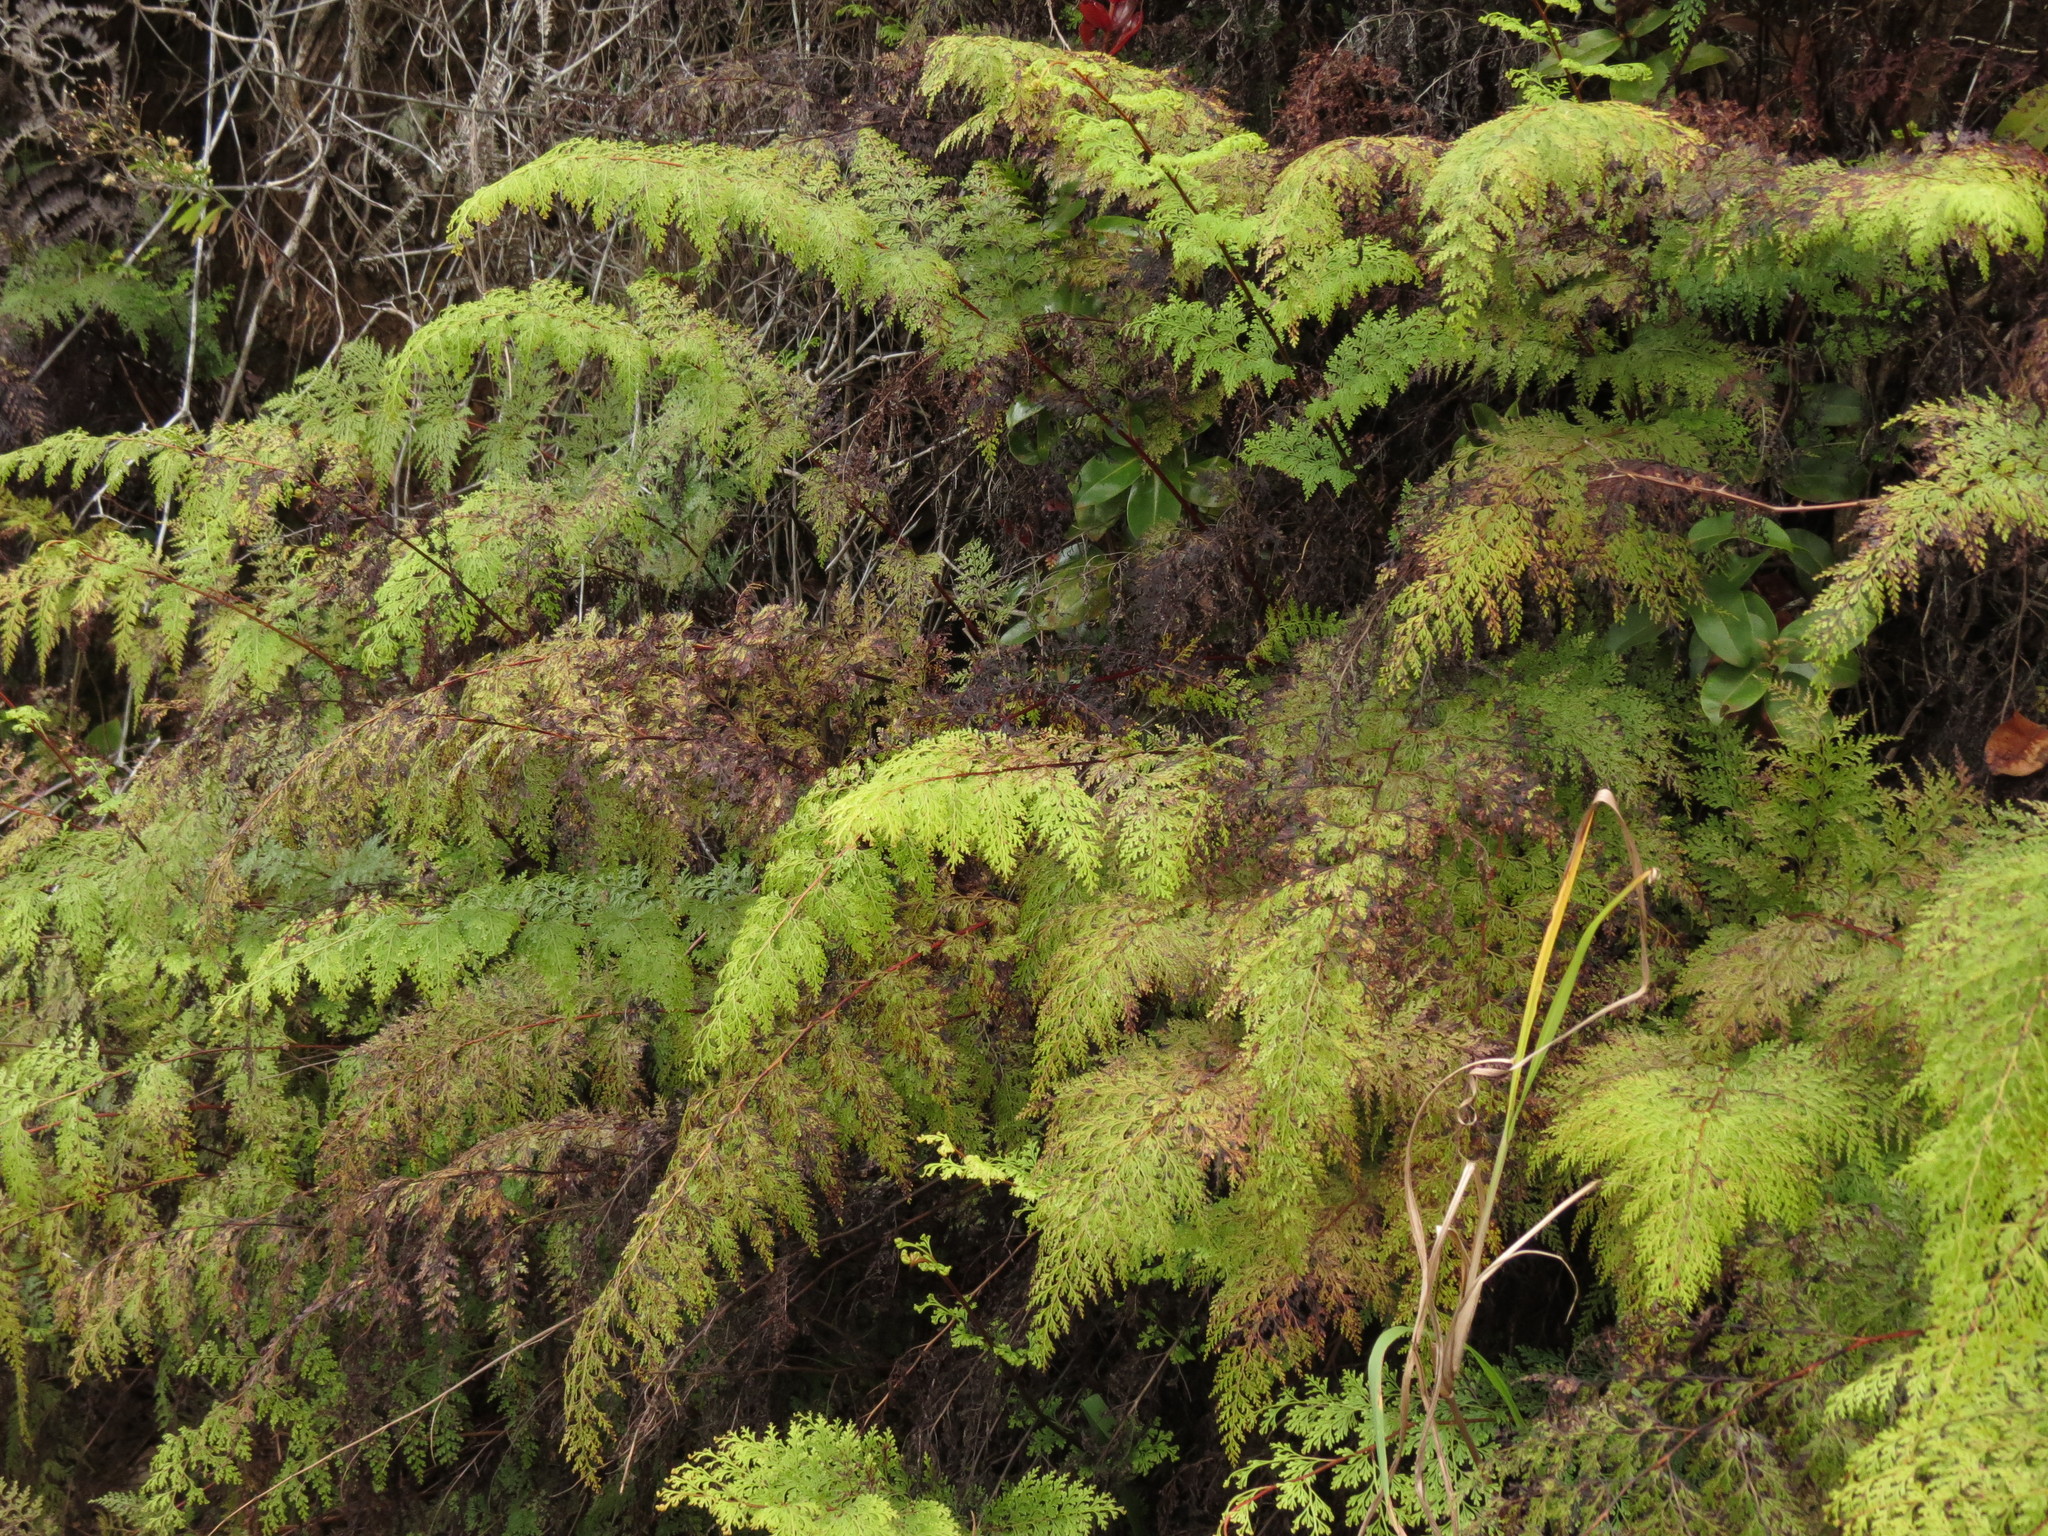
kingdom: Plantae
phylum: Tracheophyta
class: Polypodiopsida
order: Polypodiales
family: Lindsaeaceae
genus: Odontosoria
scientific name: Odontosoria chinensis
